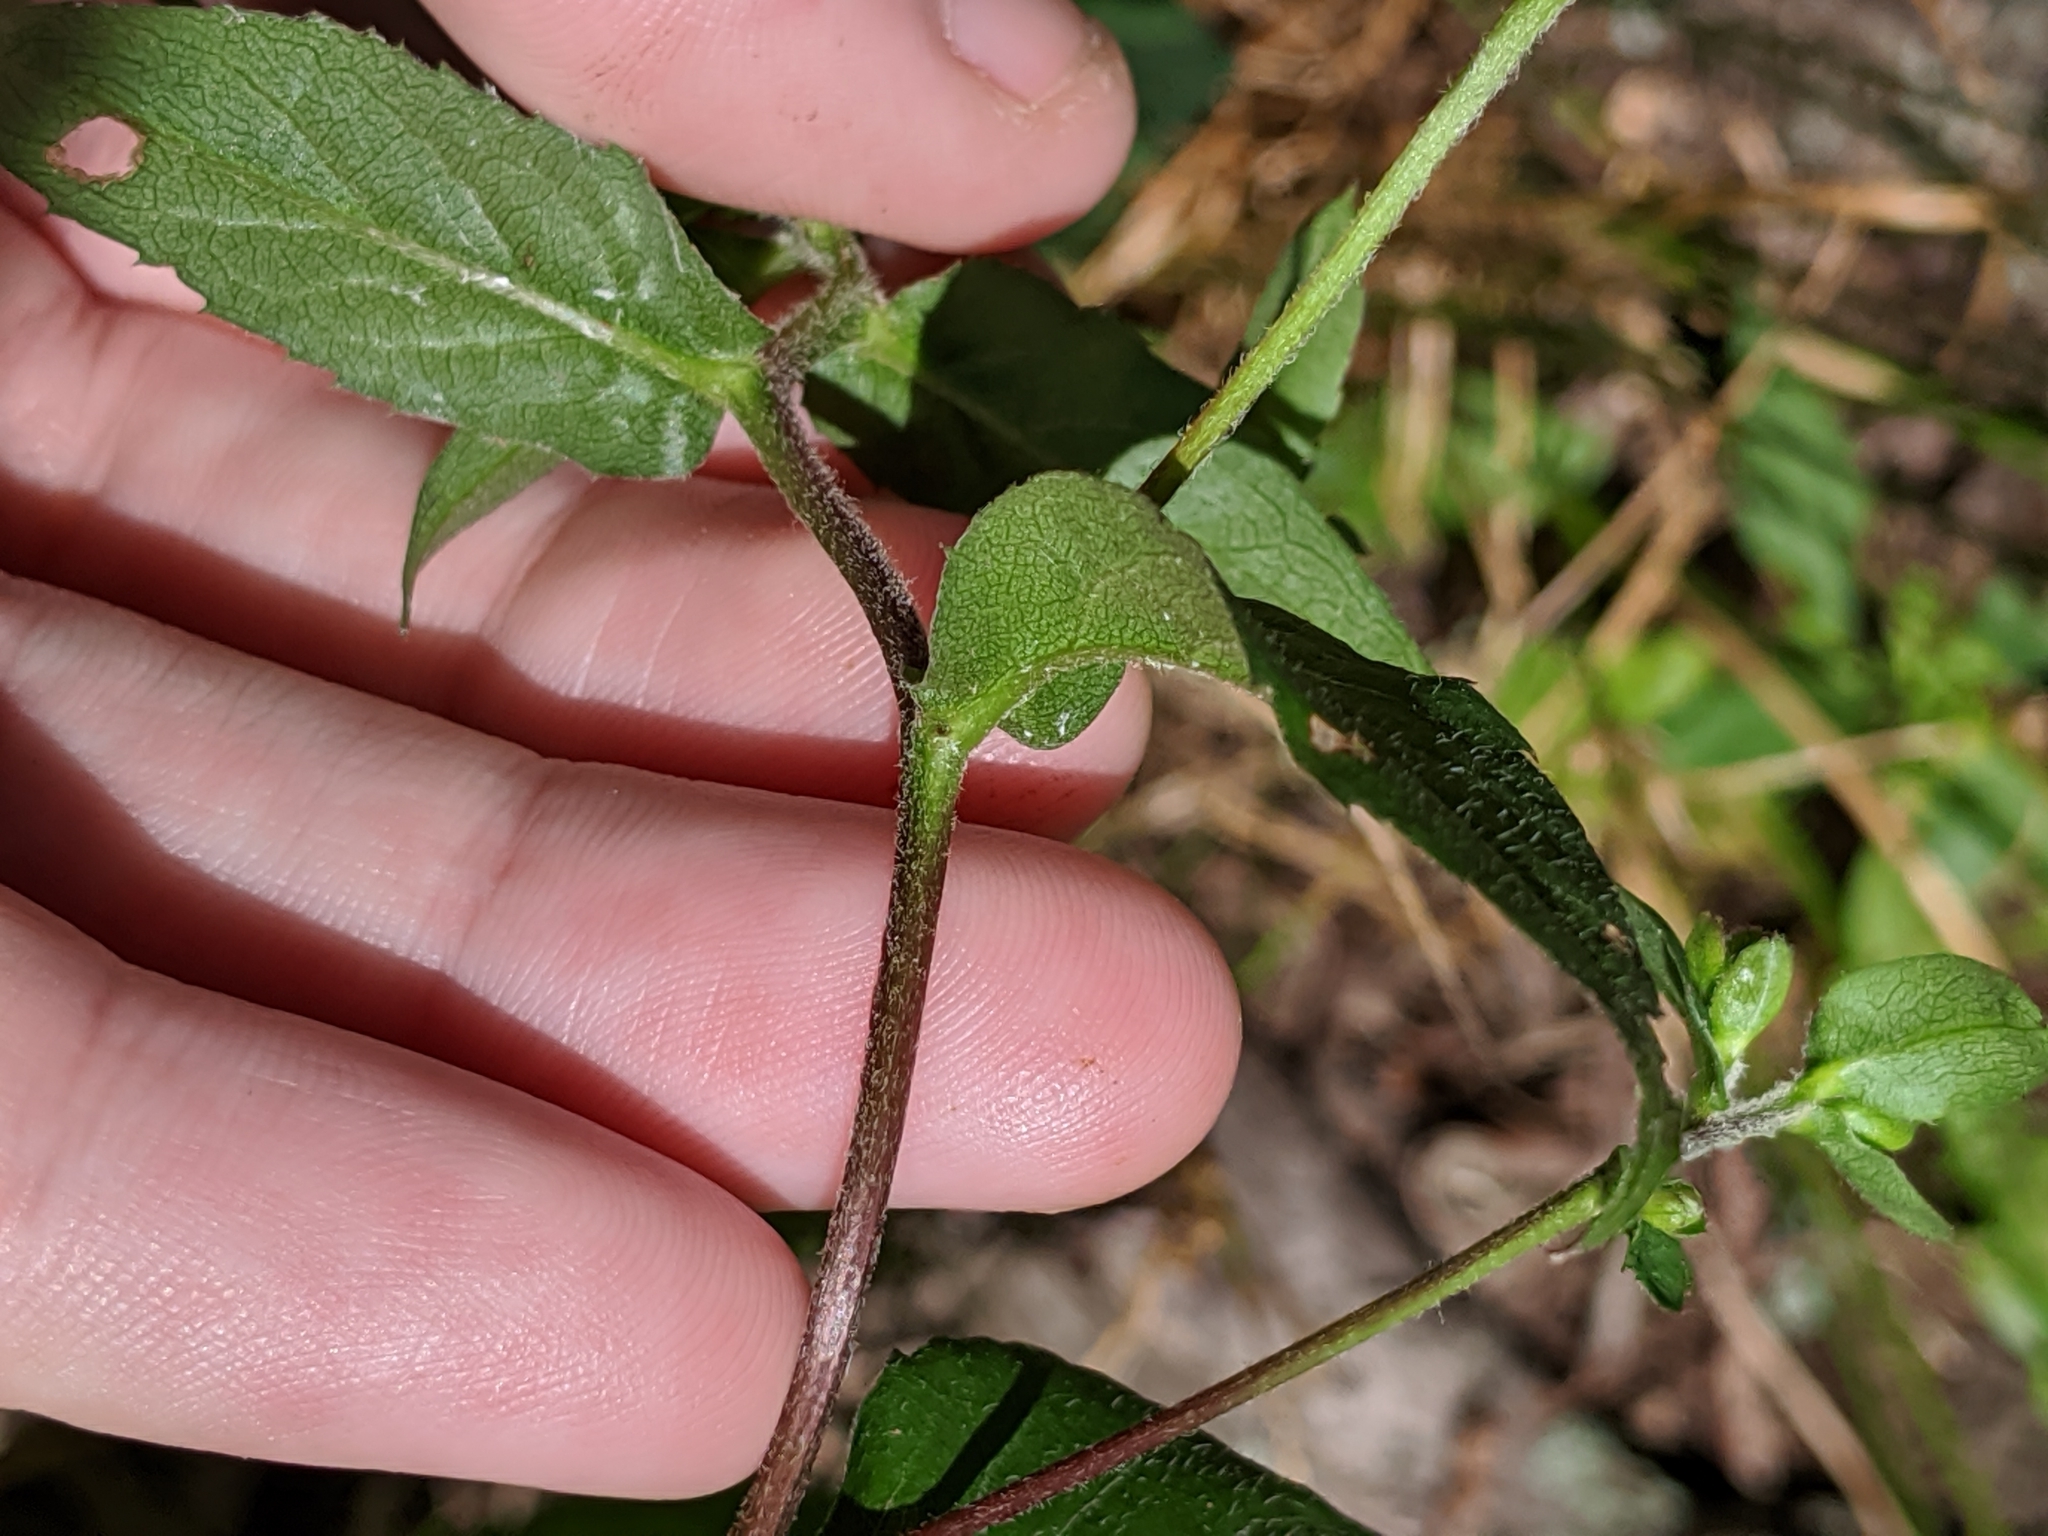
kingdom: Plantae
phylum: Tracheophyta
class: Magnoliopsida
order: Asterales
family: Asteraceae
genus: Eurybia
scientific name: Eurybia divaricata
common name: White wood aster
